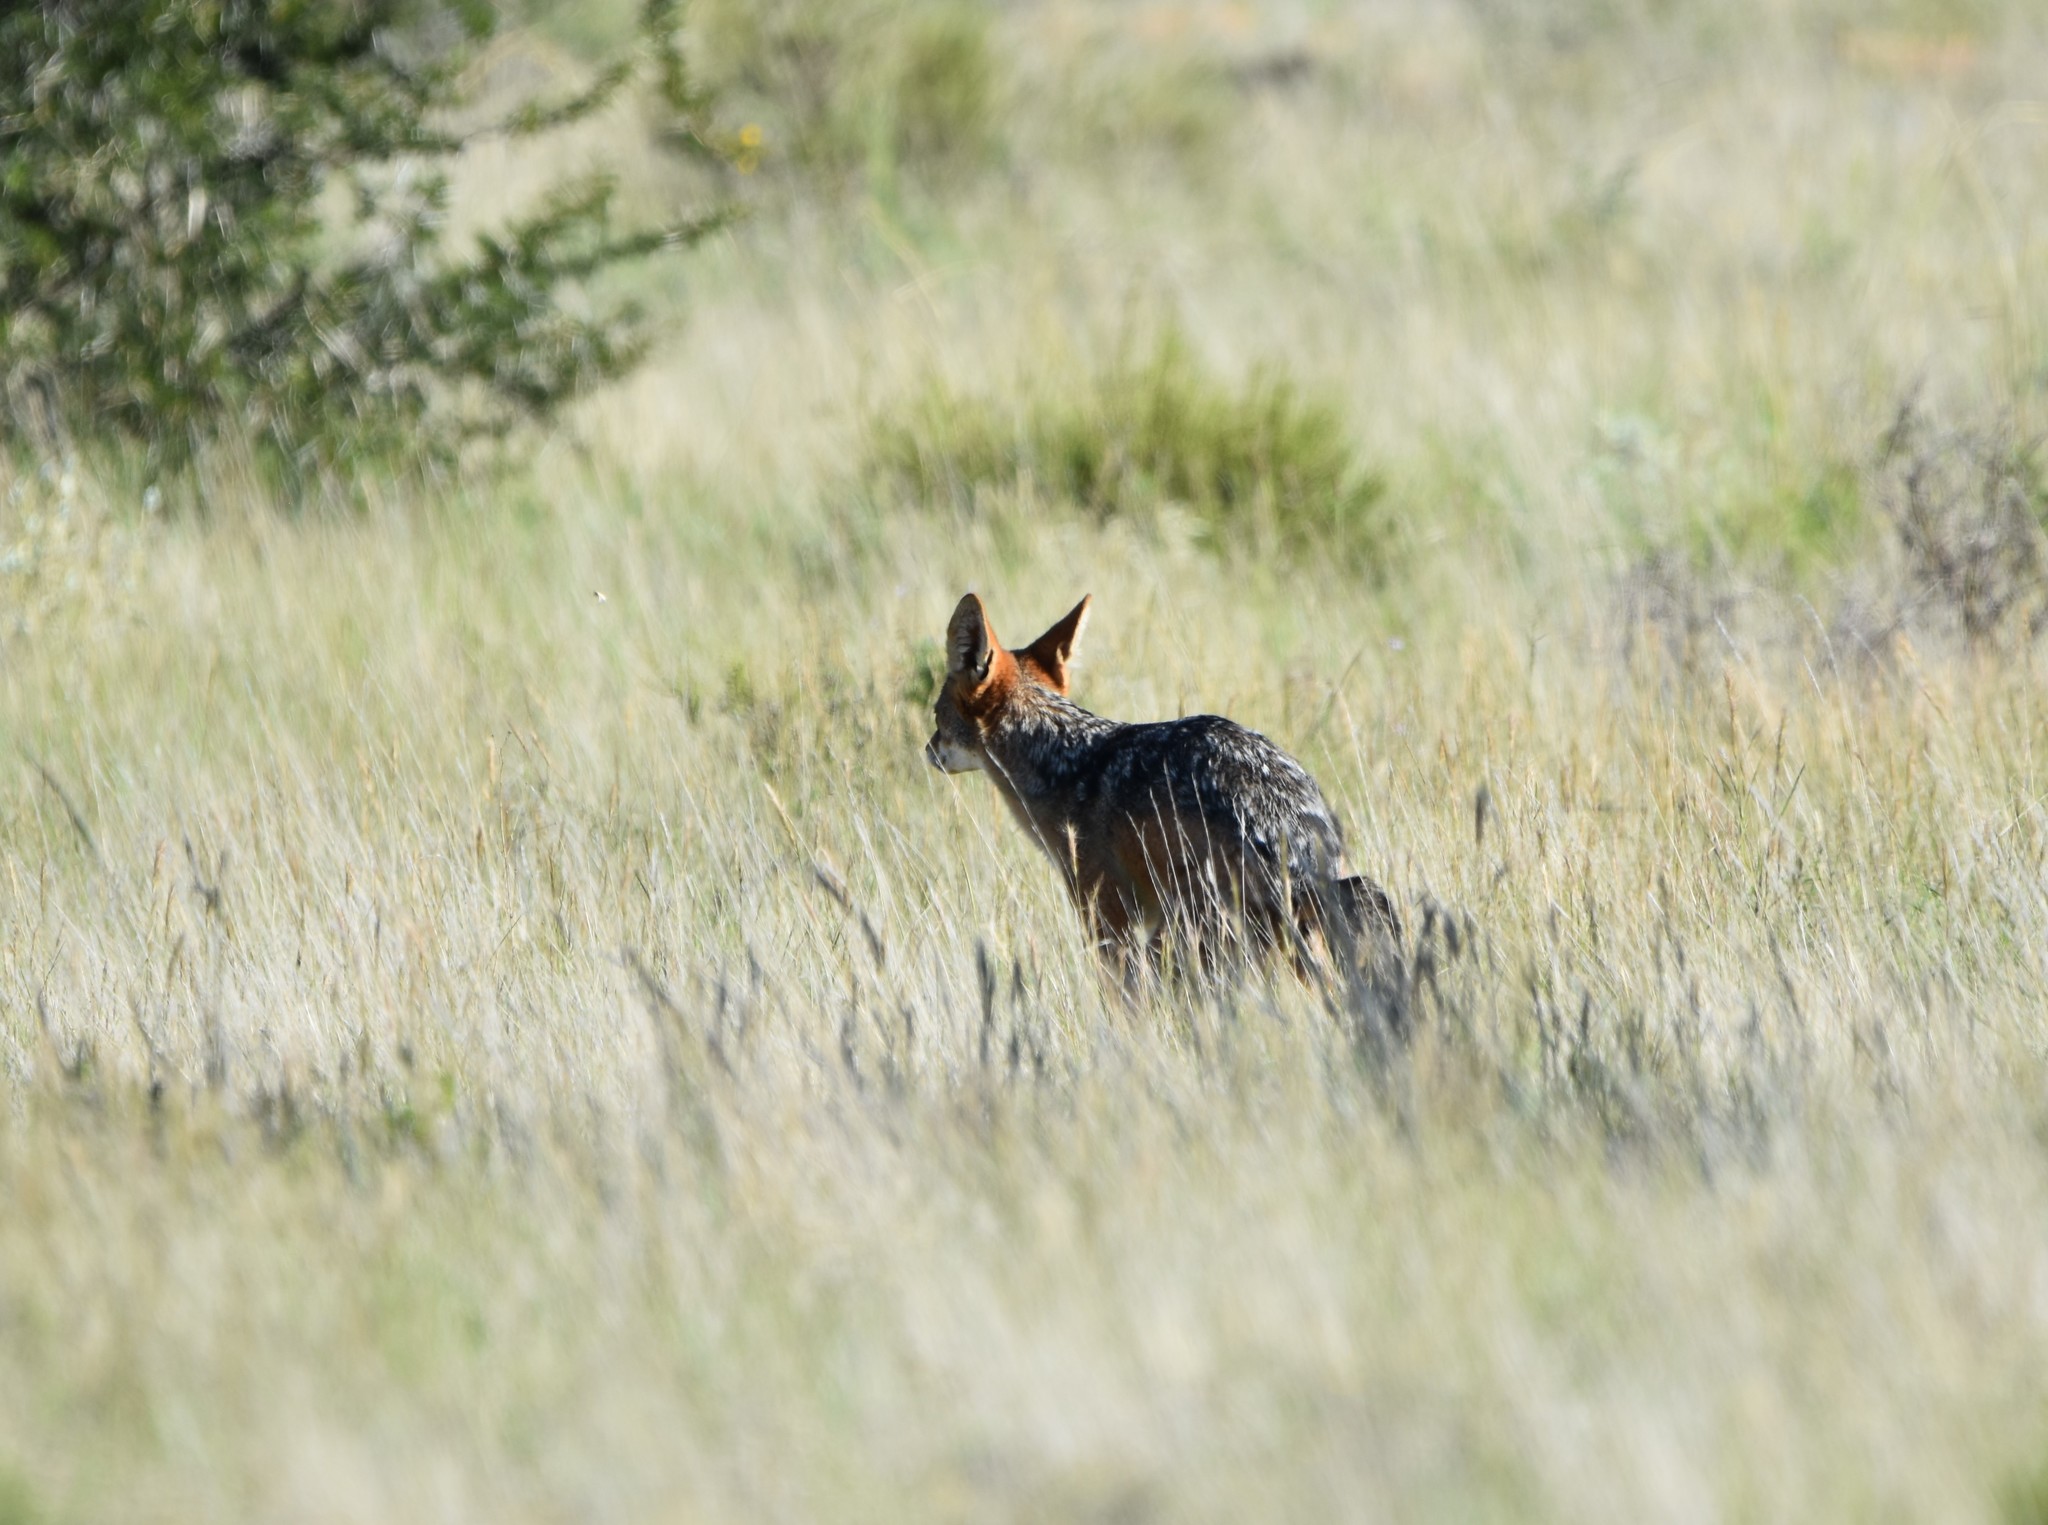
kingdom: Animalia
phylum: Chordata
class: Mammalia
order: Carnivora
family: Canidae
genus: Lupulella
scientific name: Lupulella
